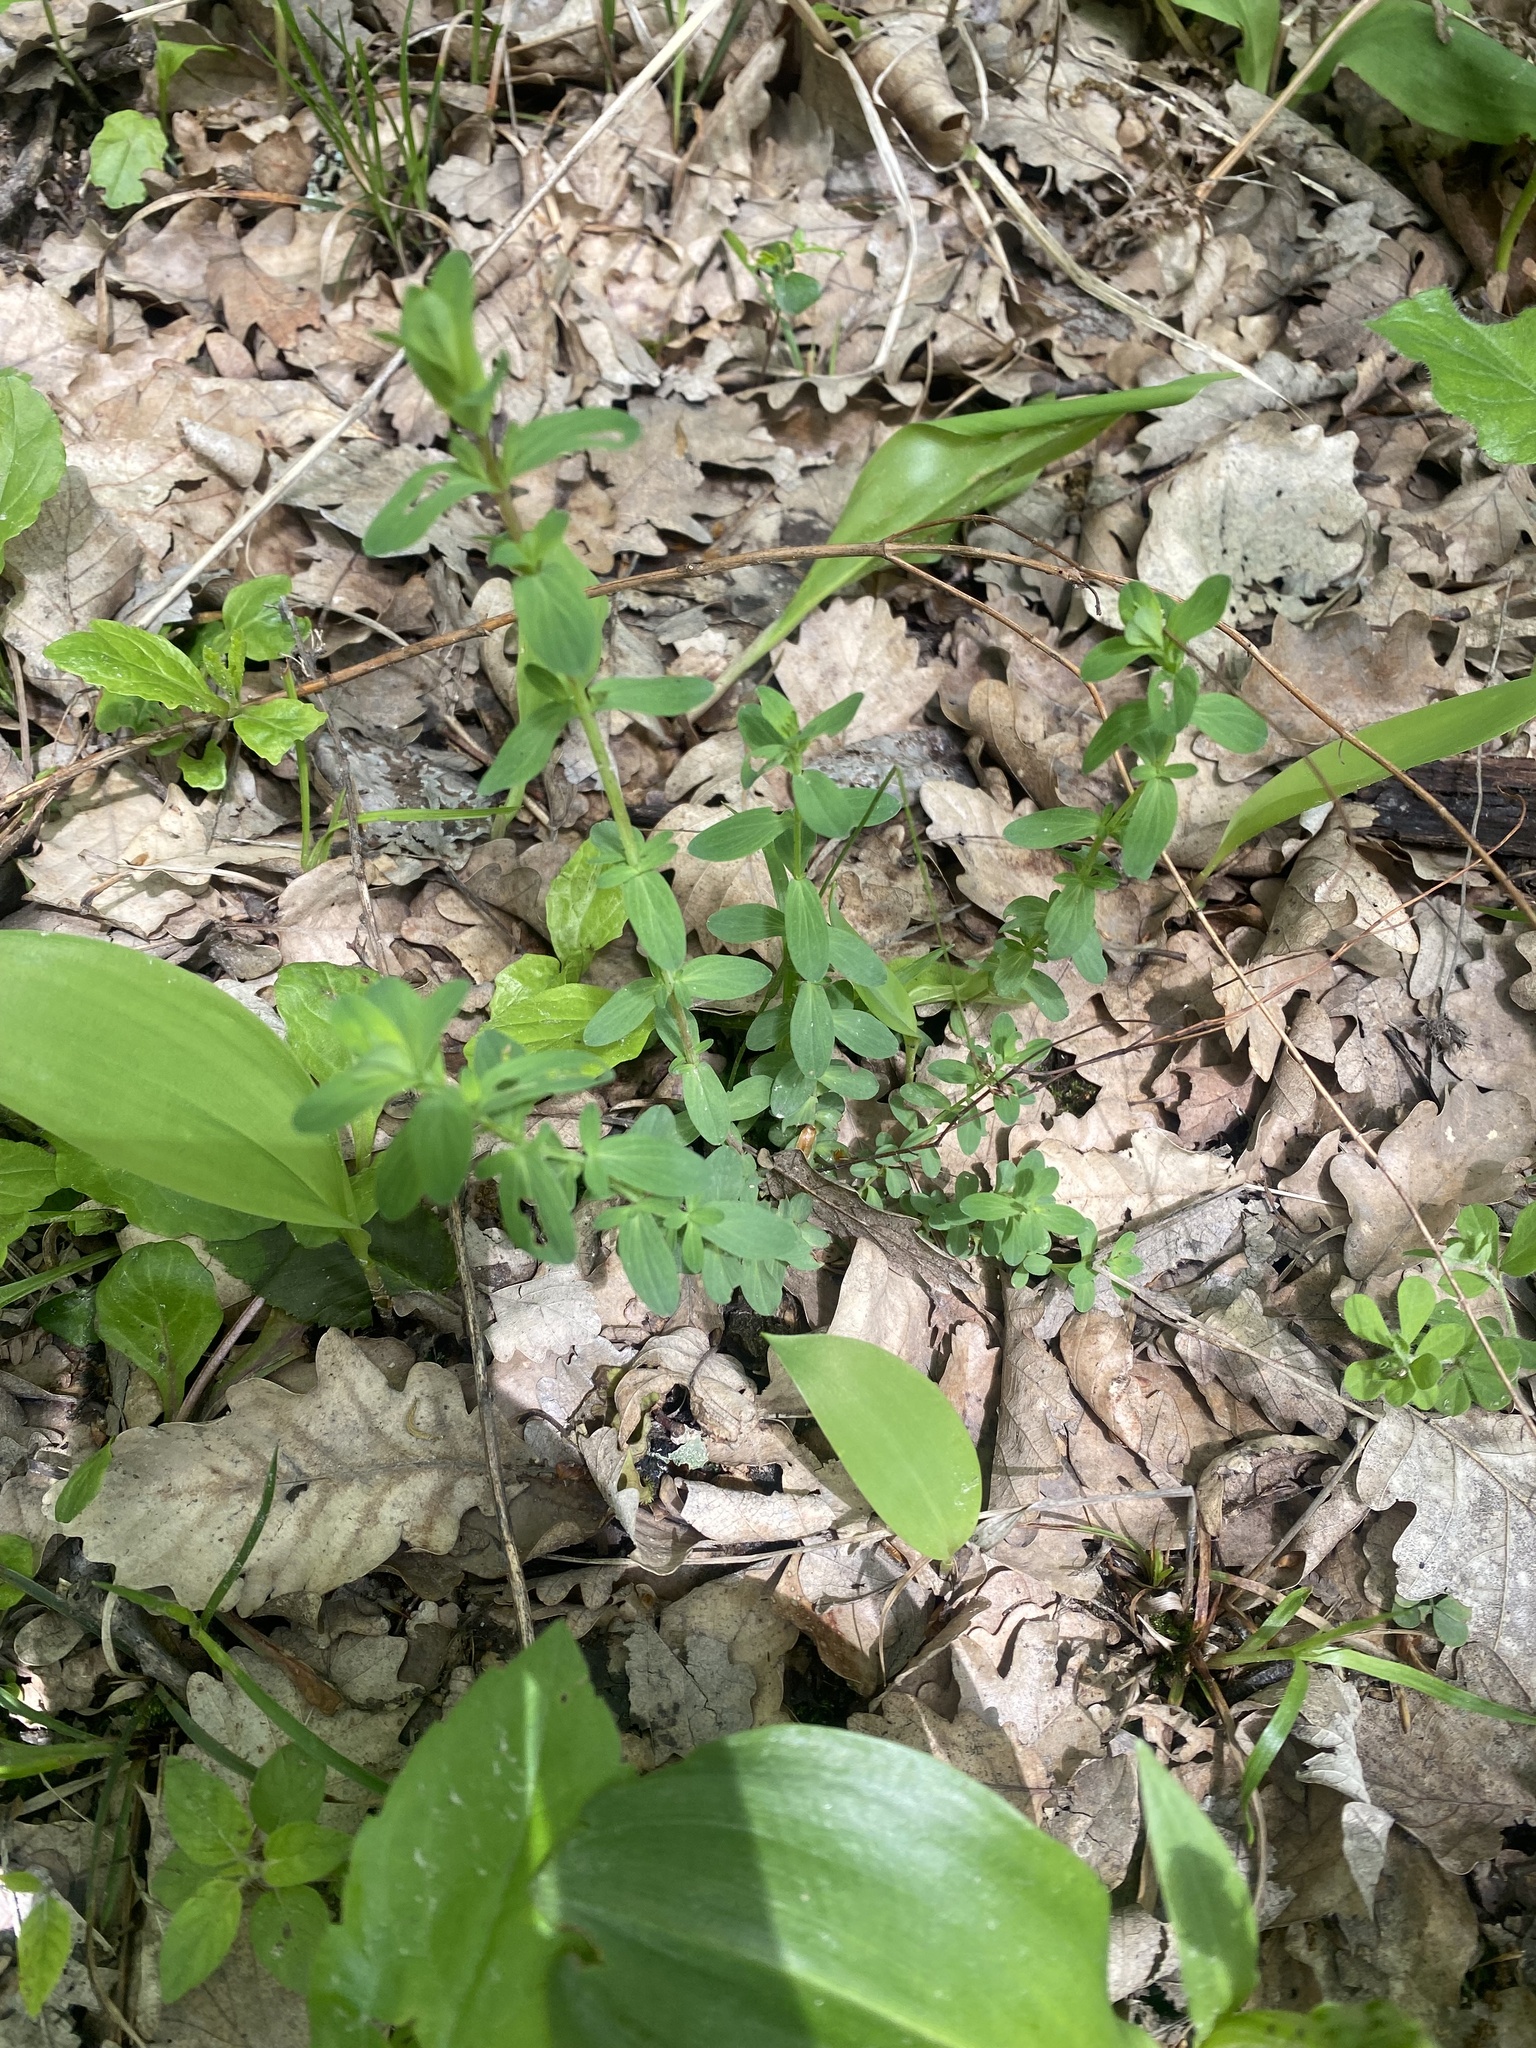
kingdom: Plantae
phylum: Tracheophyta
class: Magnoliopsida
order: Malpighiales
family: Hypericaceae
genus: Hypericum
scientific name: Hypericum perforatum
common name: Common st. johnswort
